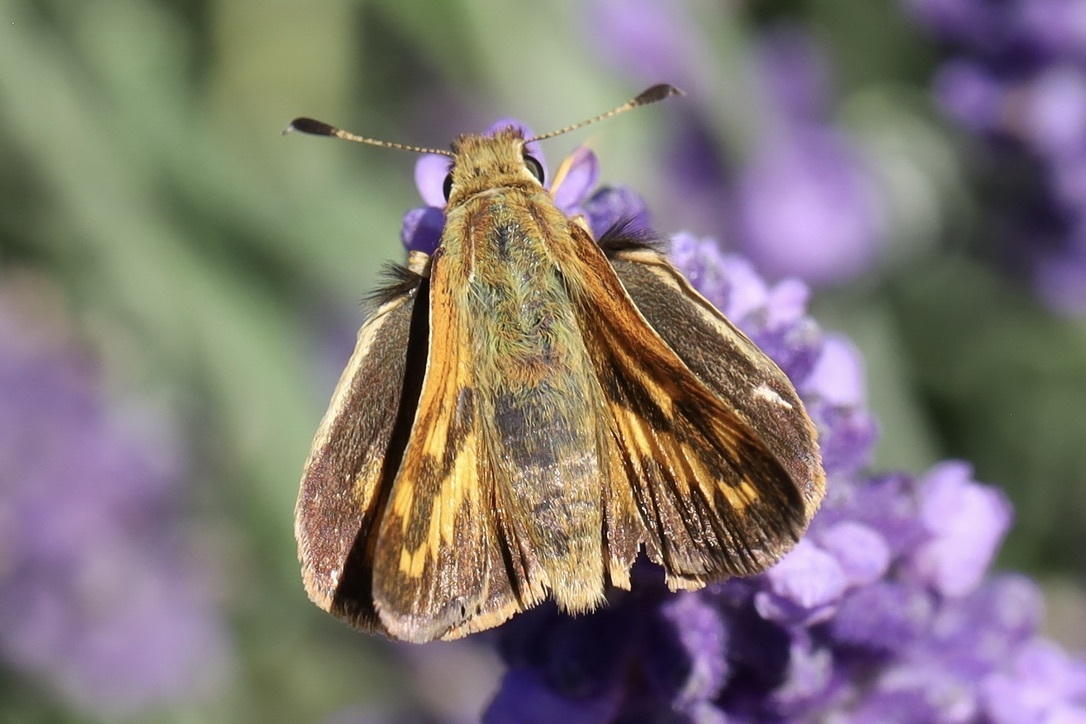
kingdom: Animalia
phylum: Arthropoda
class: Insecta
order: Lepidoptera
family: Hesperiidae
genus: Ochlodes
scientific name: Ochlodes sylvanoides
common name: Woodland skipper
